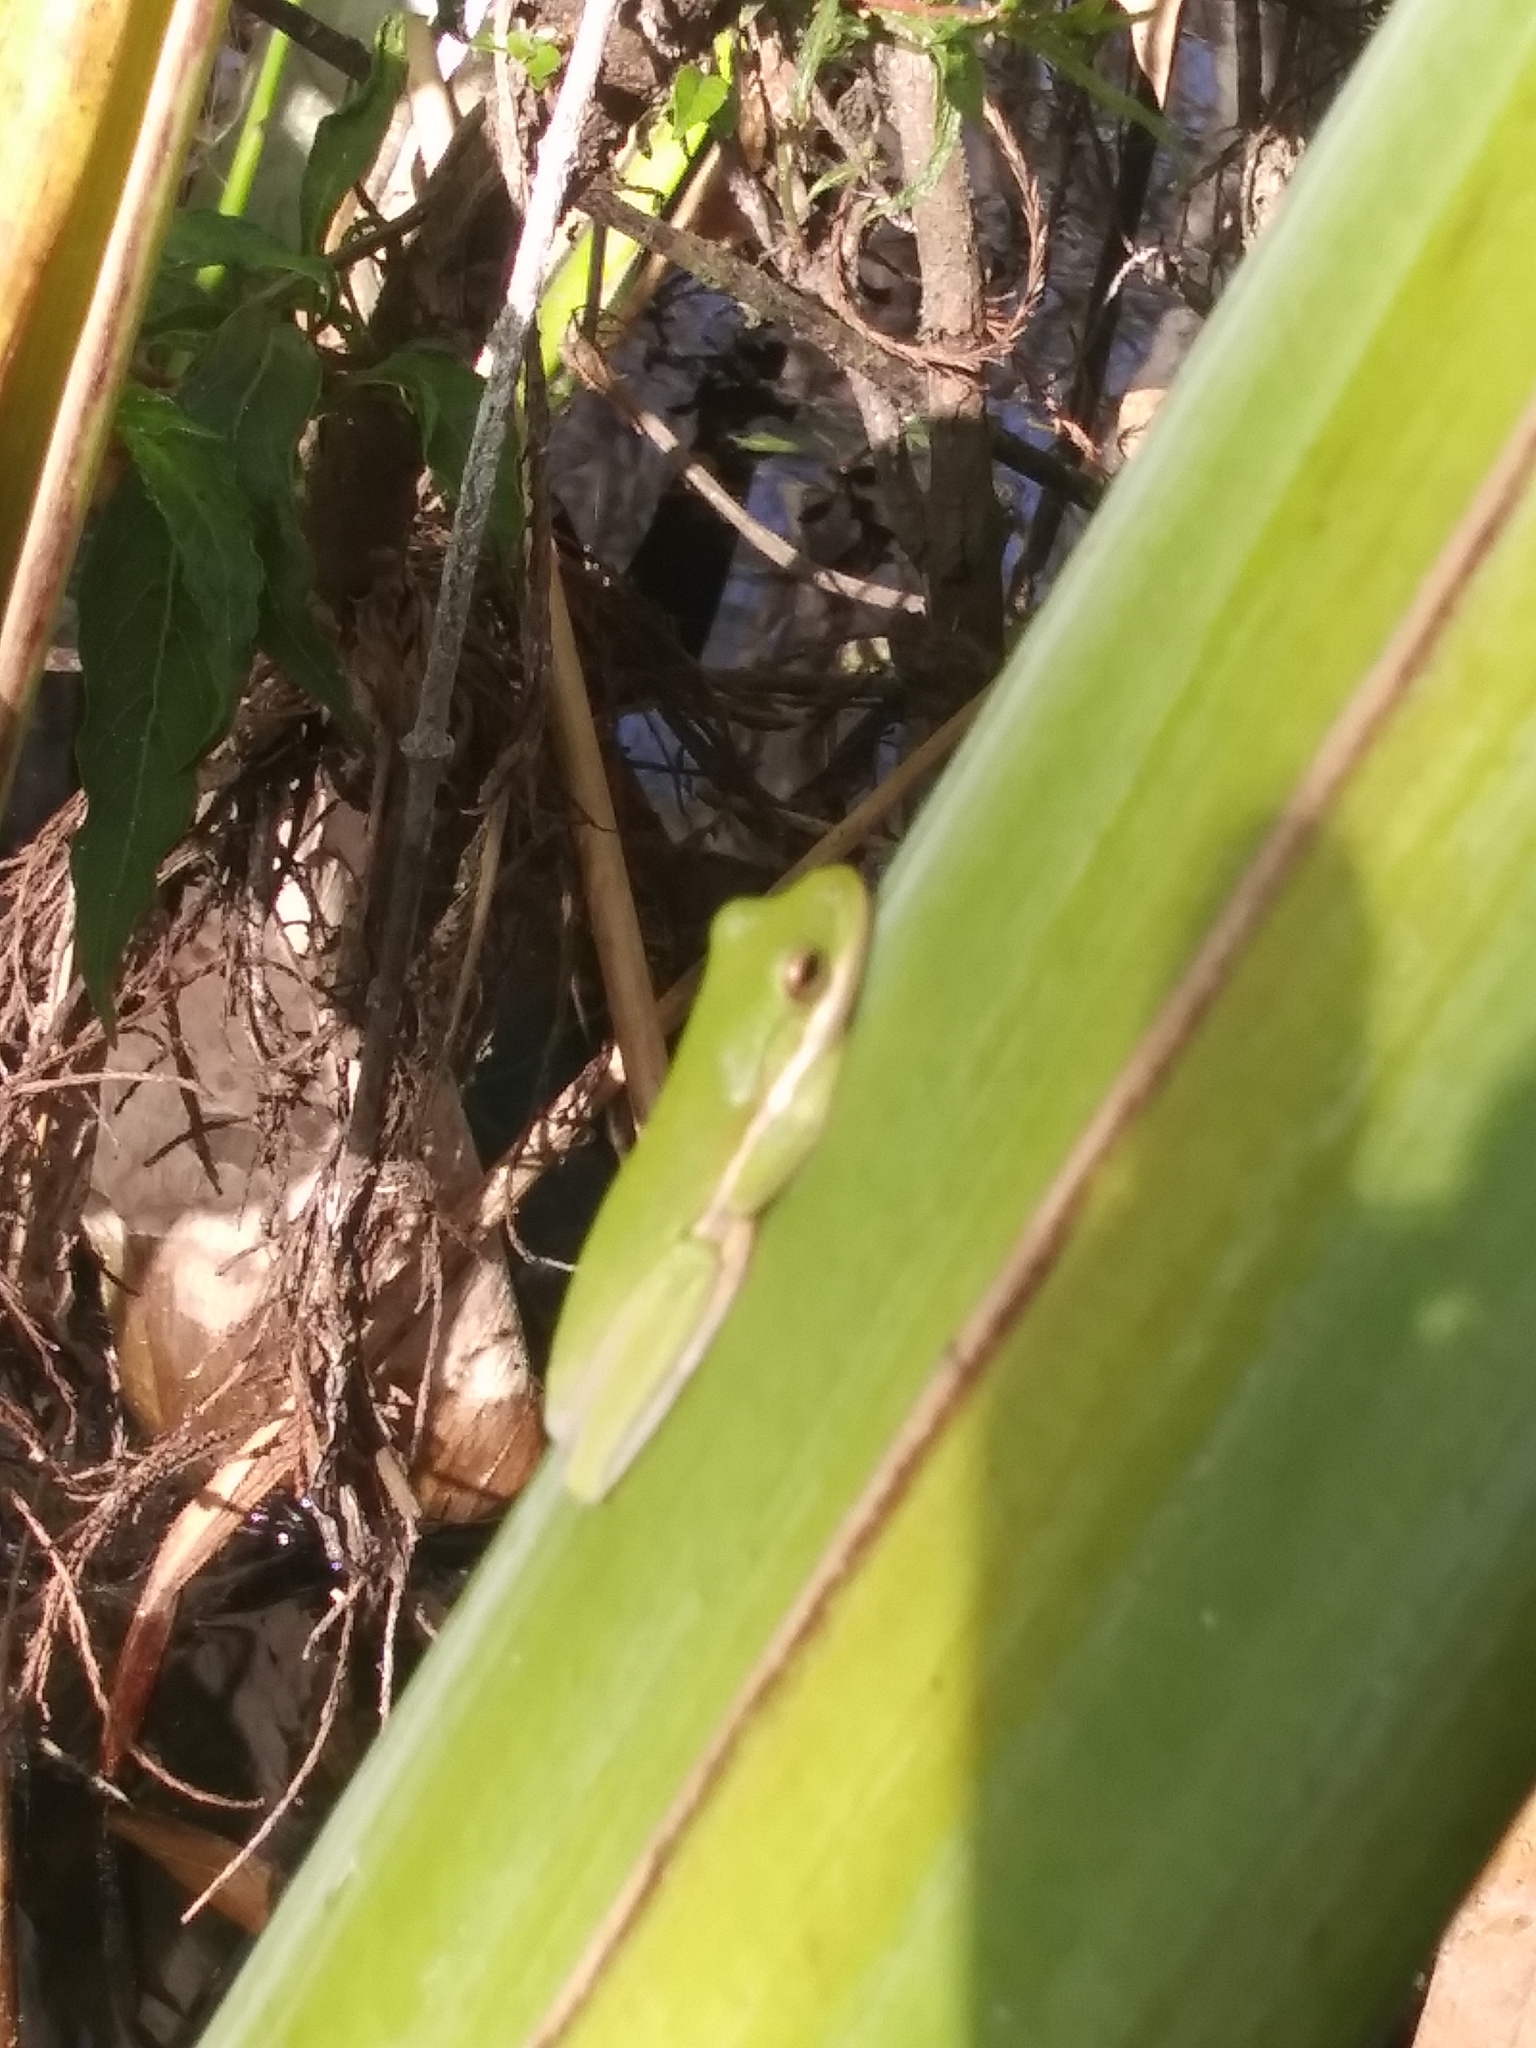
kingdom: Animalia
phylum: Chordata
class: Amphibia
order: Anura
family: Hylidae
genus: Dryophytes
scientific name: Dryophytes cinereus
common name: Green treefrog
